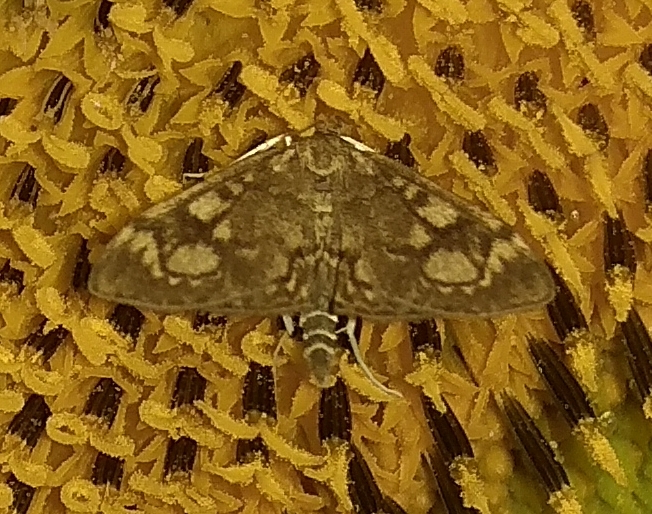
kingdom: Animalia
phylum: Arthropoda
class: Insecta
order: Lepidoptera
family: Crambidae
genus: Anania
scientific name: Anania coronata
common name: Elder pearl
